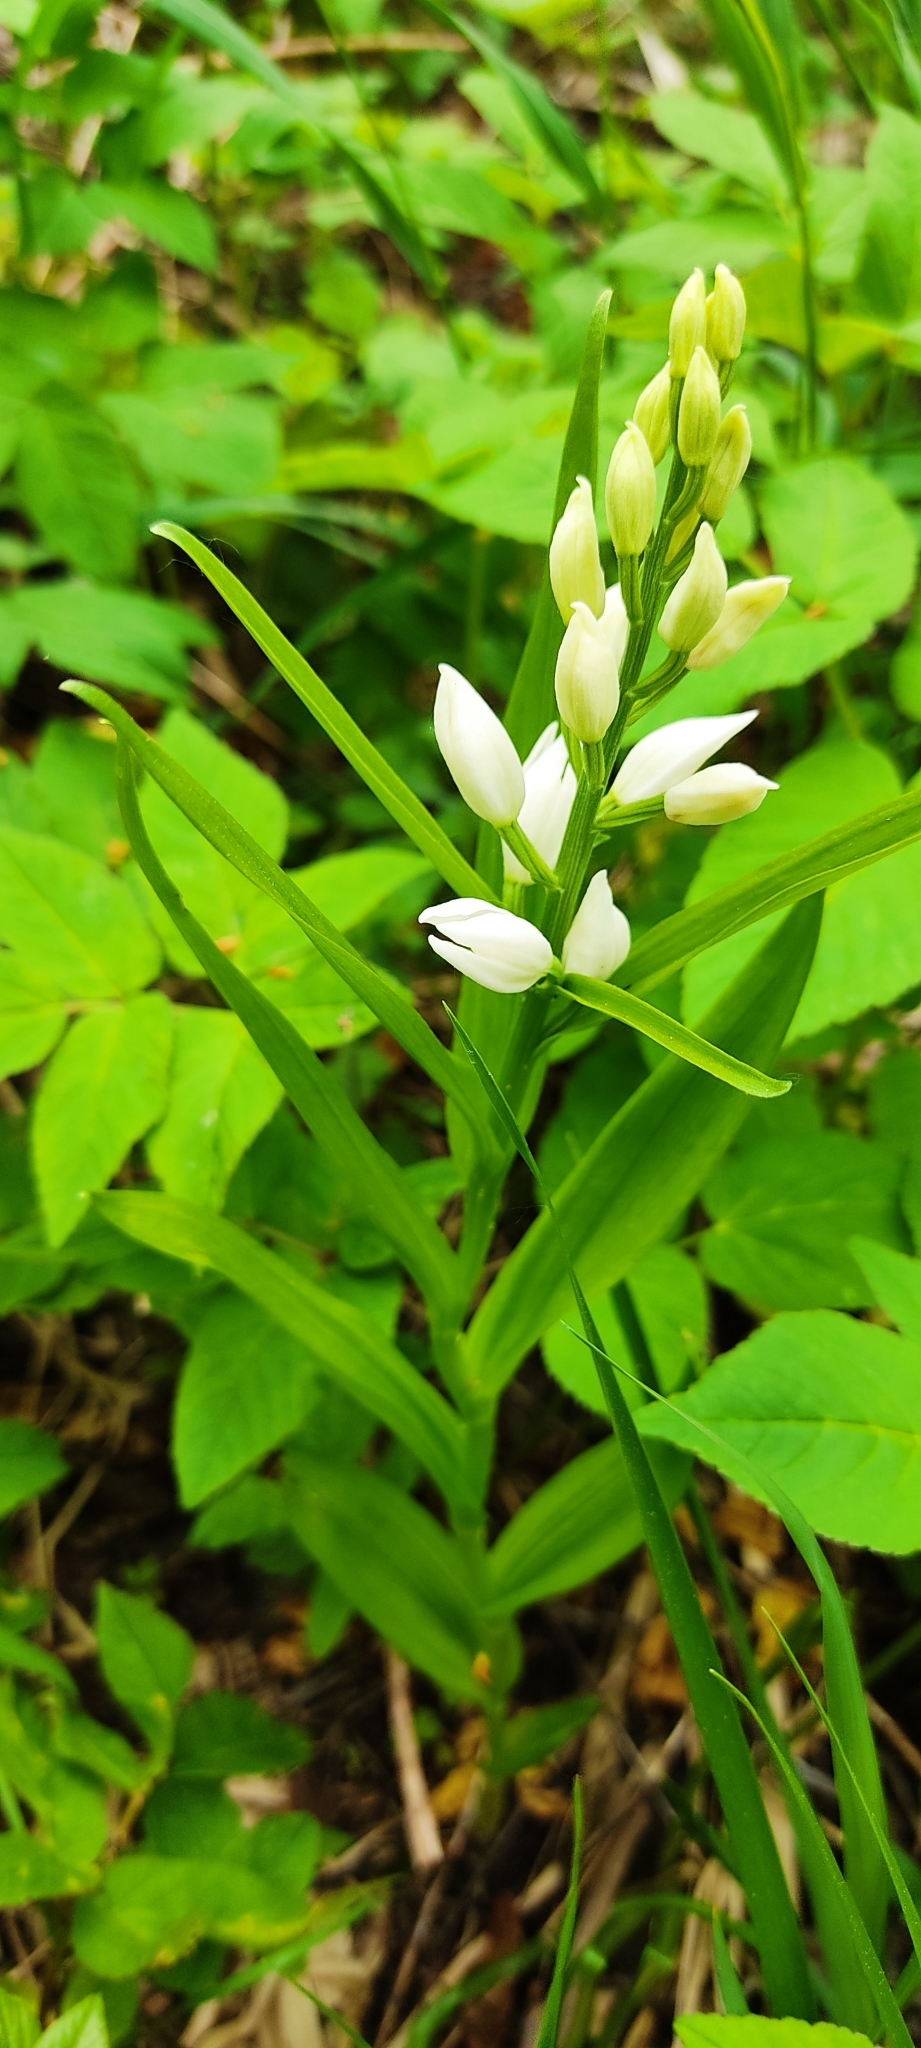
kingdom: Plantae
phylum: Tracheophyta
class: Liliopsida
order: Asparagales
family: Orchidaceae
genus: Cephalanthera
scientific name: Cephalanthera longifolia
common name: Narrow-leaved helleborine
